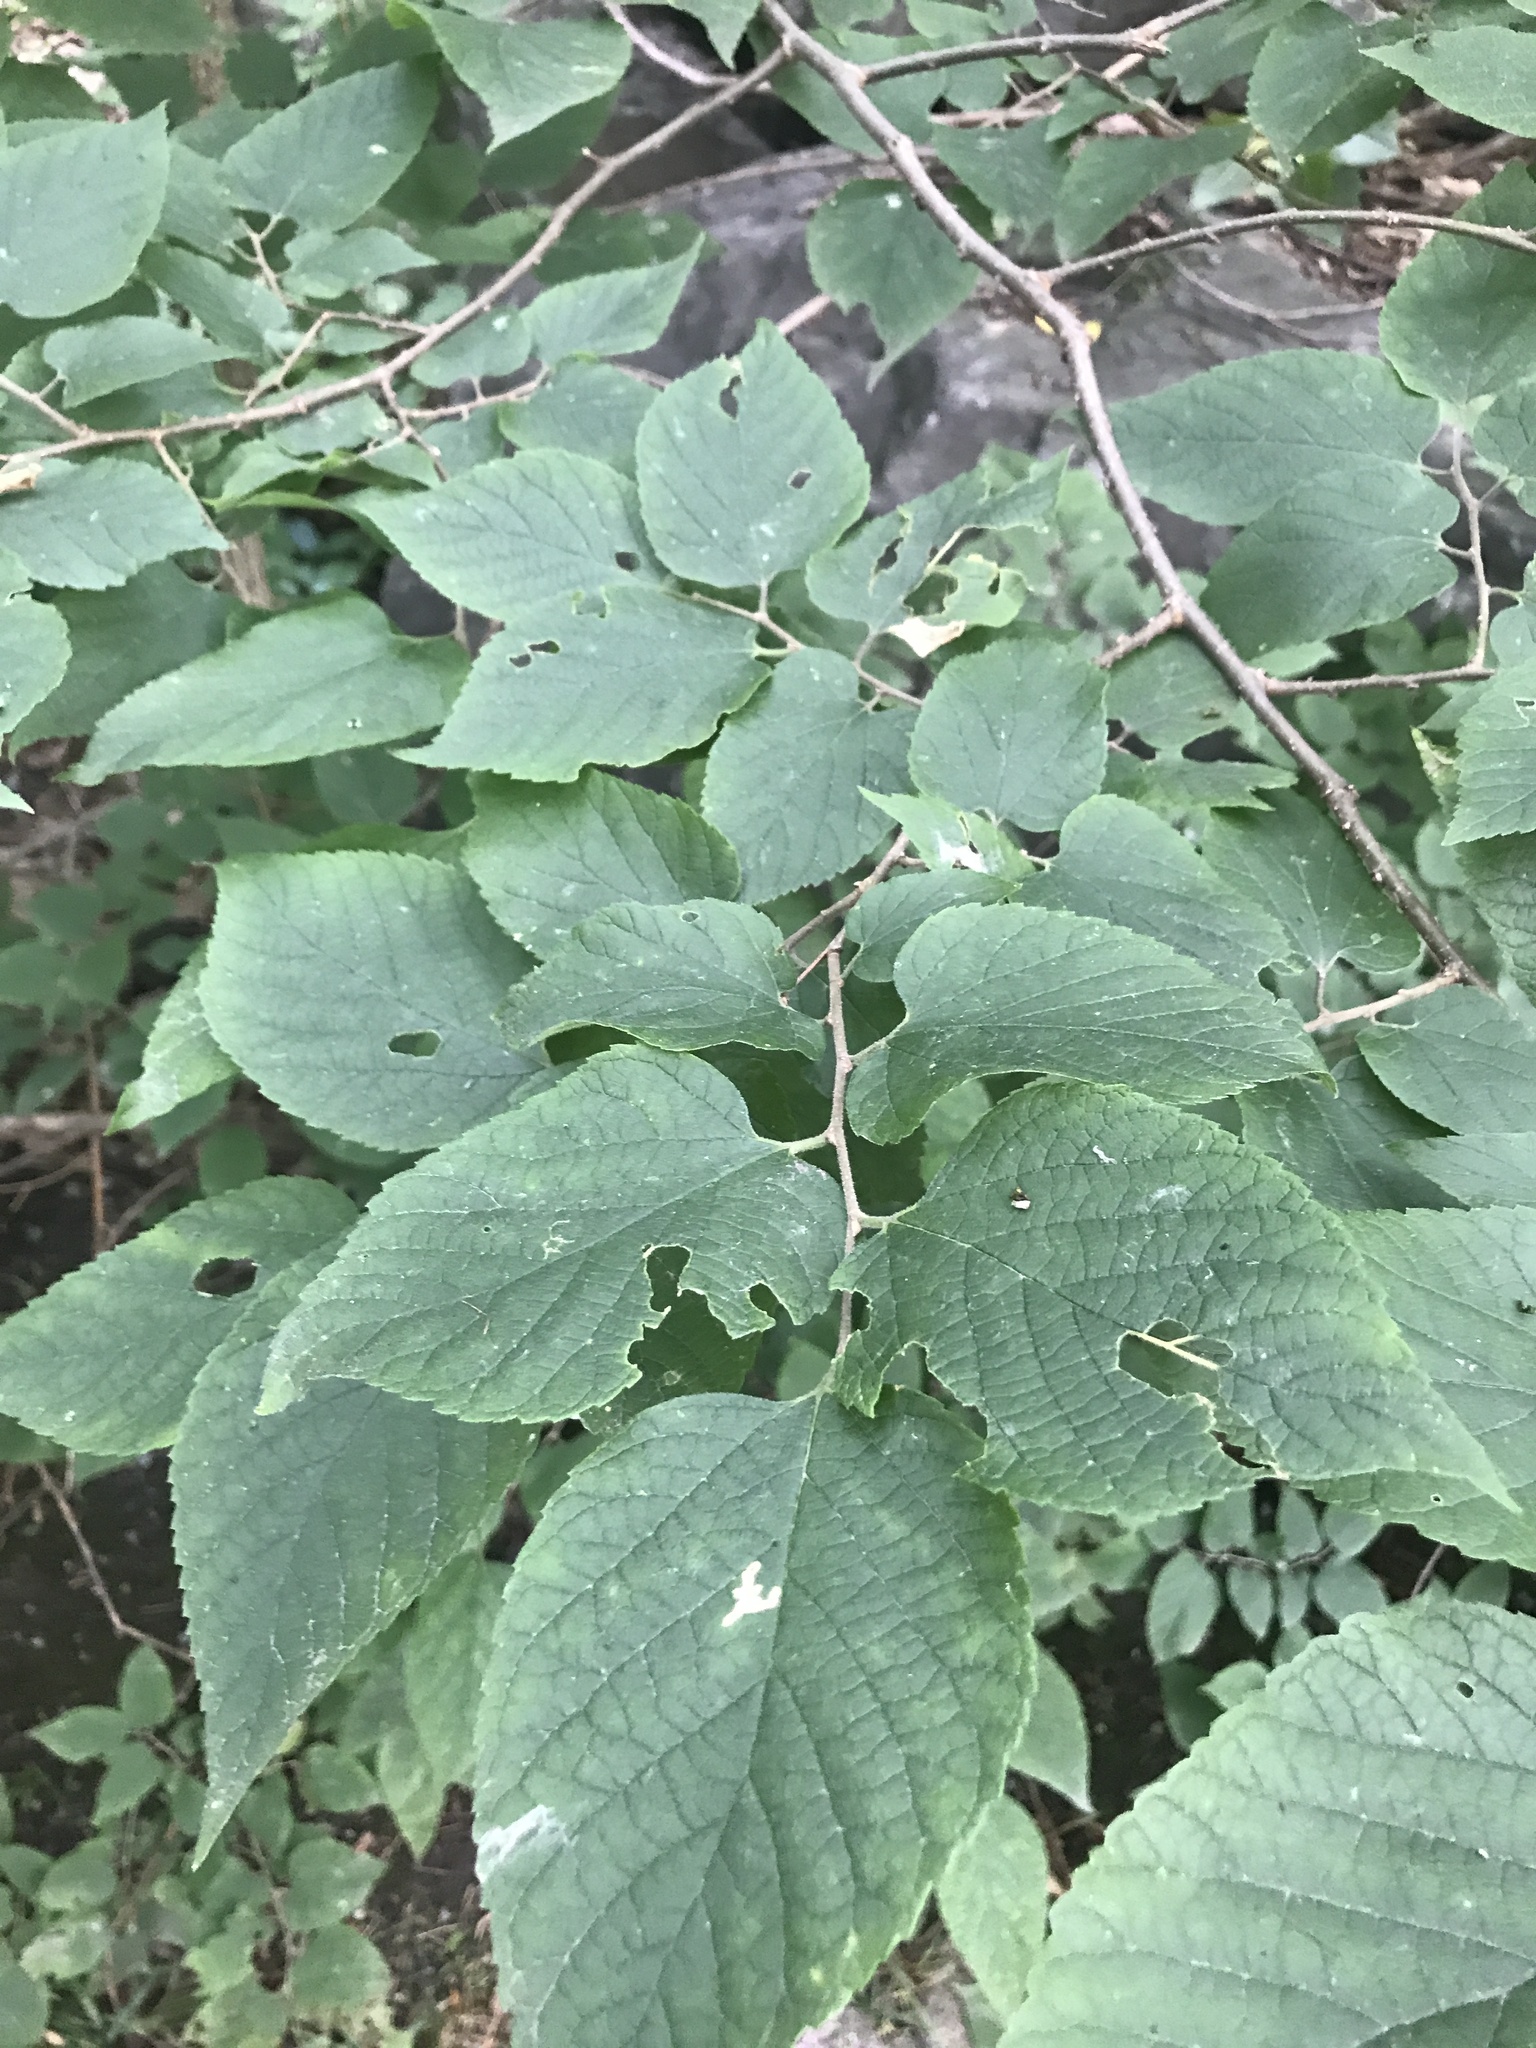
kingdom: Plantae
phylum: Tracheophyta
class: Magnoliopsida
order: Rosales
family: Cannabaceae
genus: Celtis
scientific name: Celtis occidentalis
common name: Common hackberry
